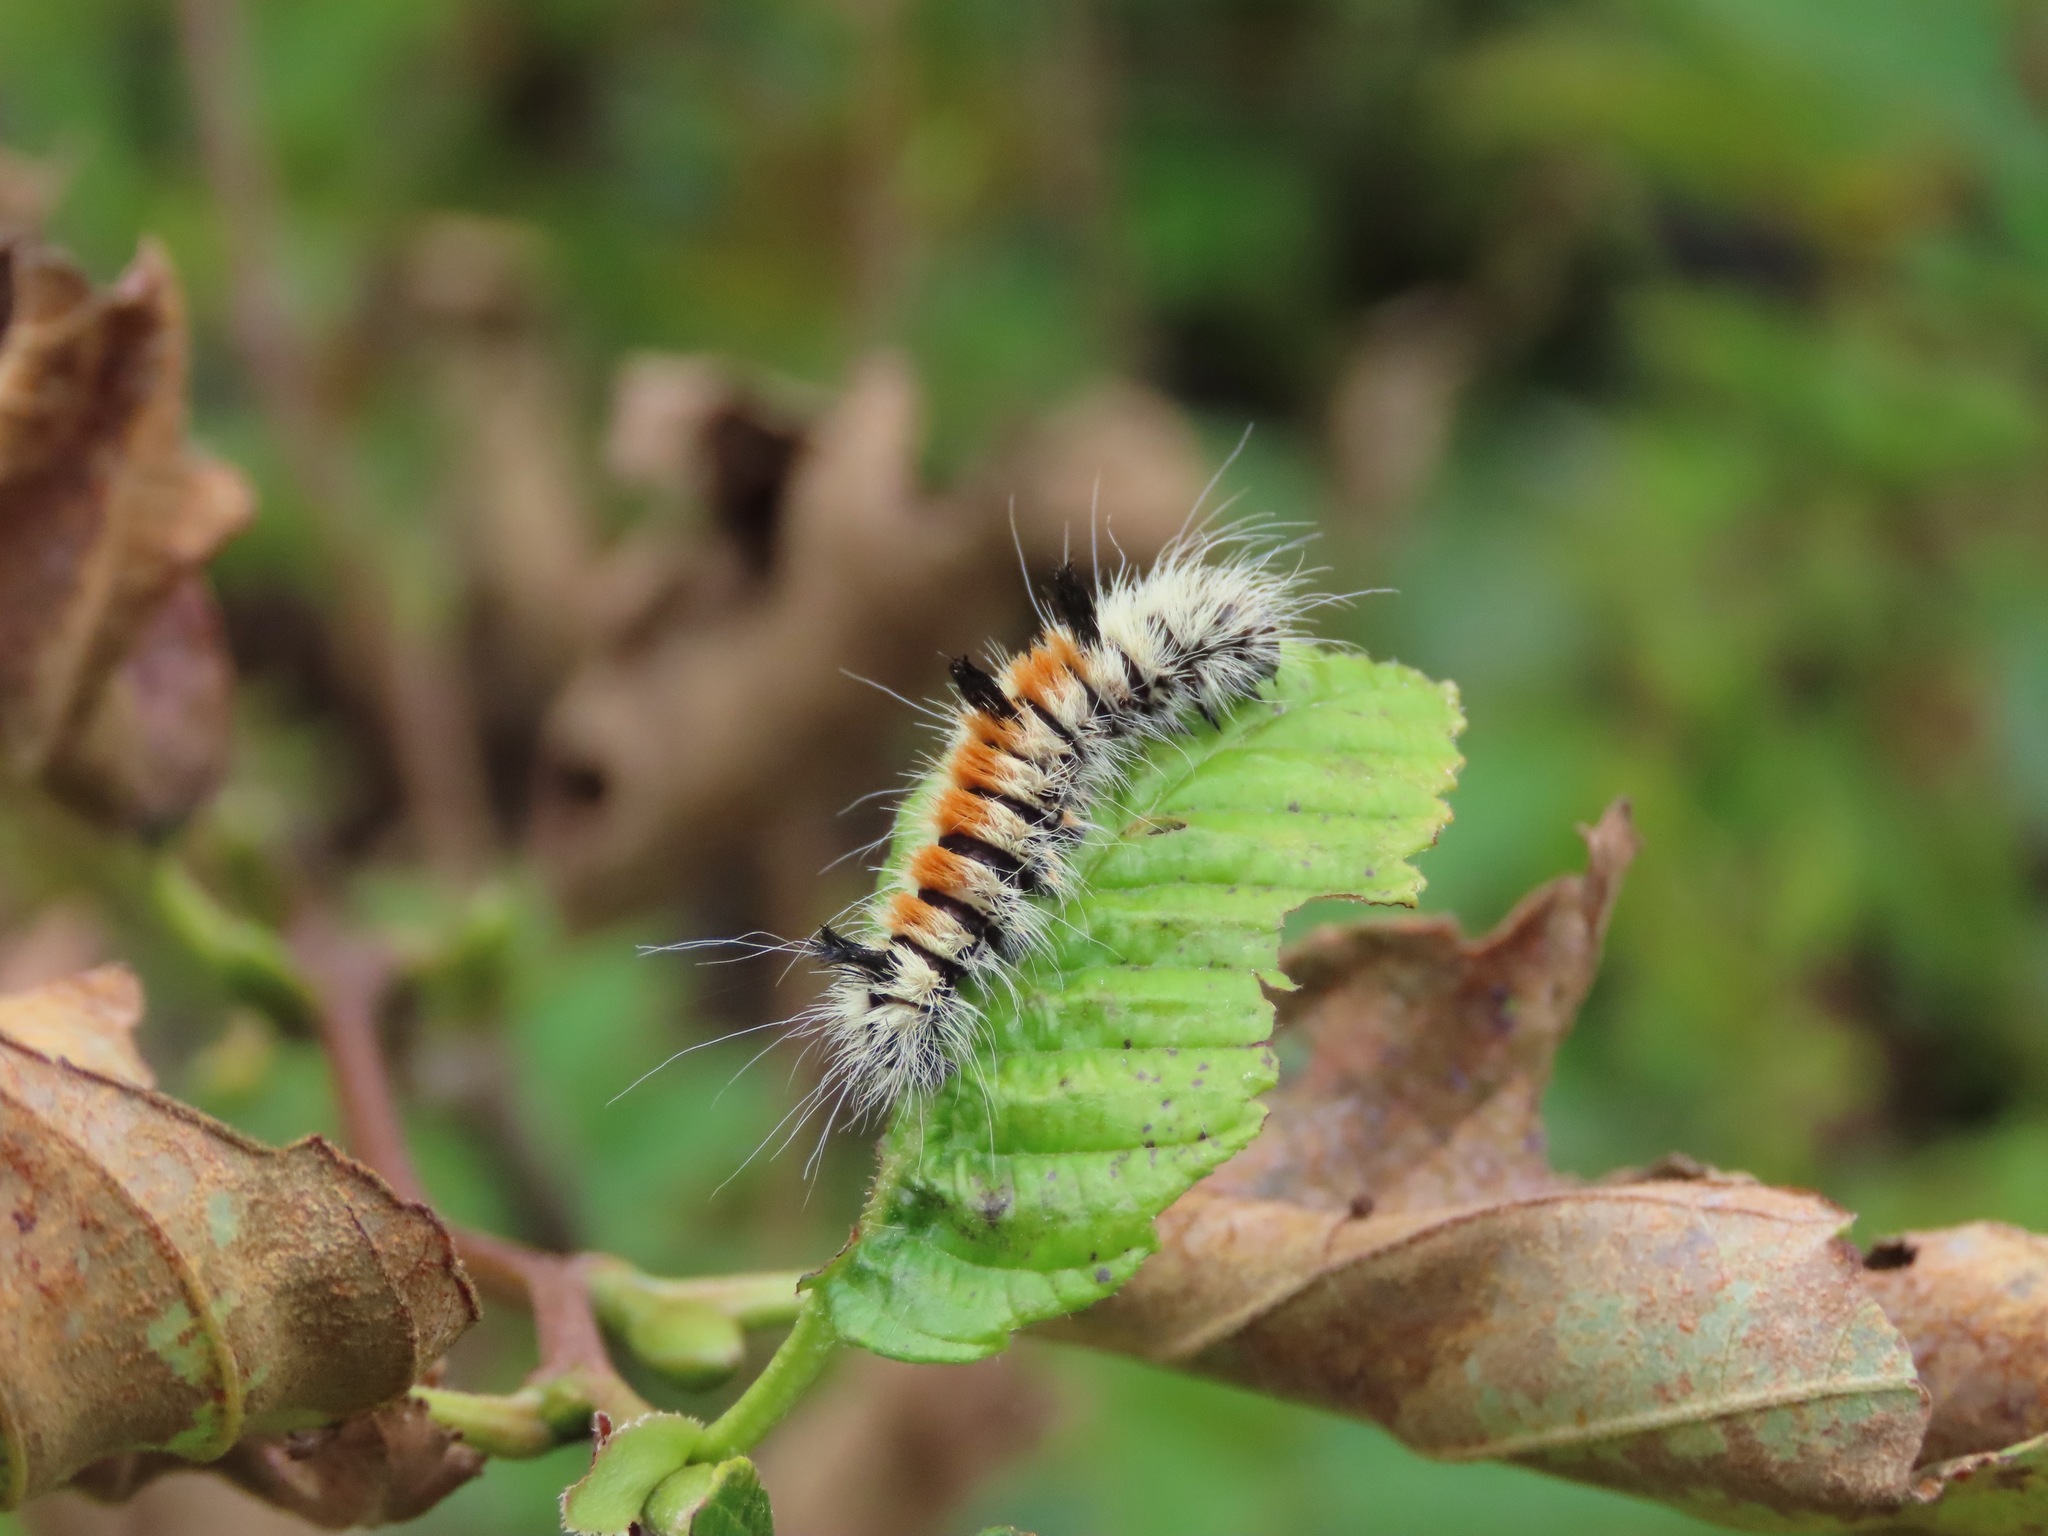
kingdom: Animalia
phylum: Arthropoda
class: Insecta
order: Lepidoptera
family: Noctuidae
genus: Acronicta
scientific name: Acronicta insita
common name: Large gray dagger
